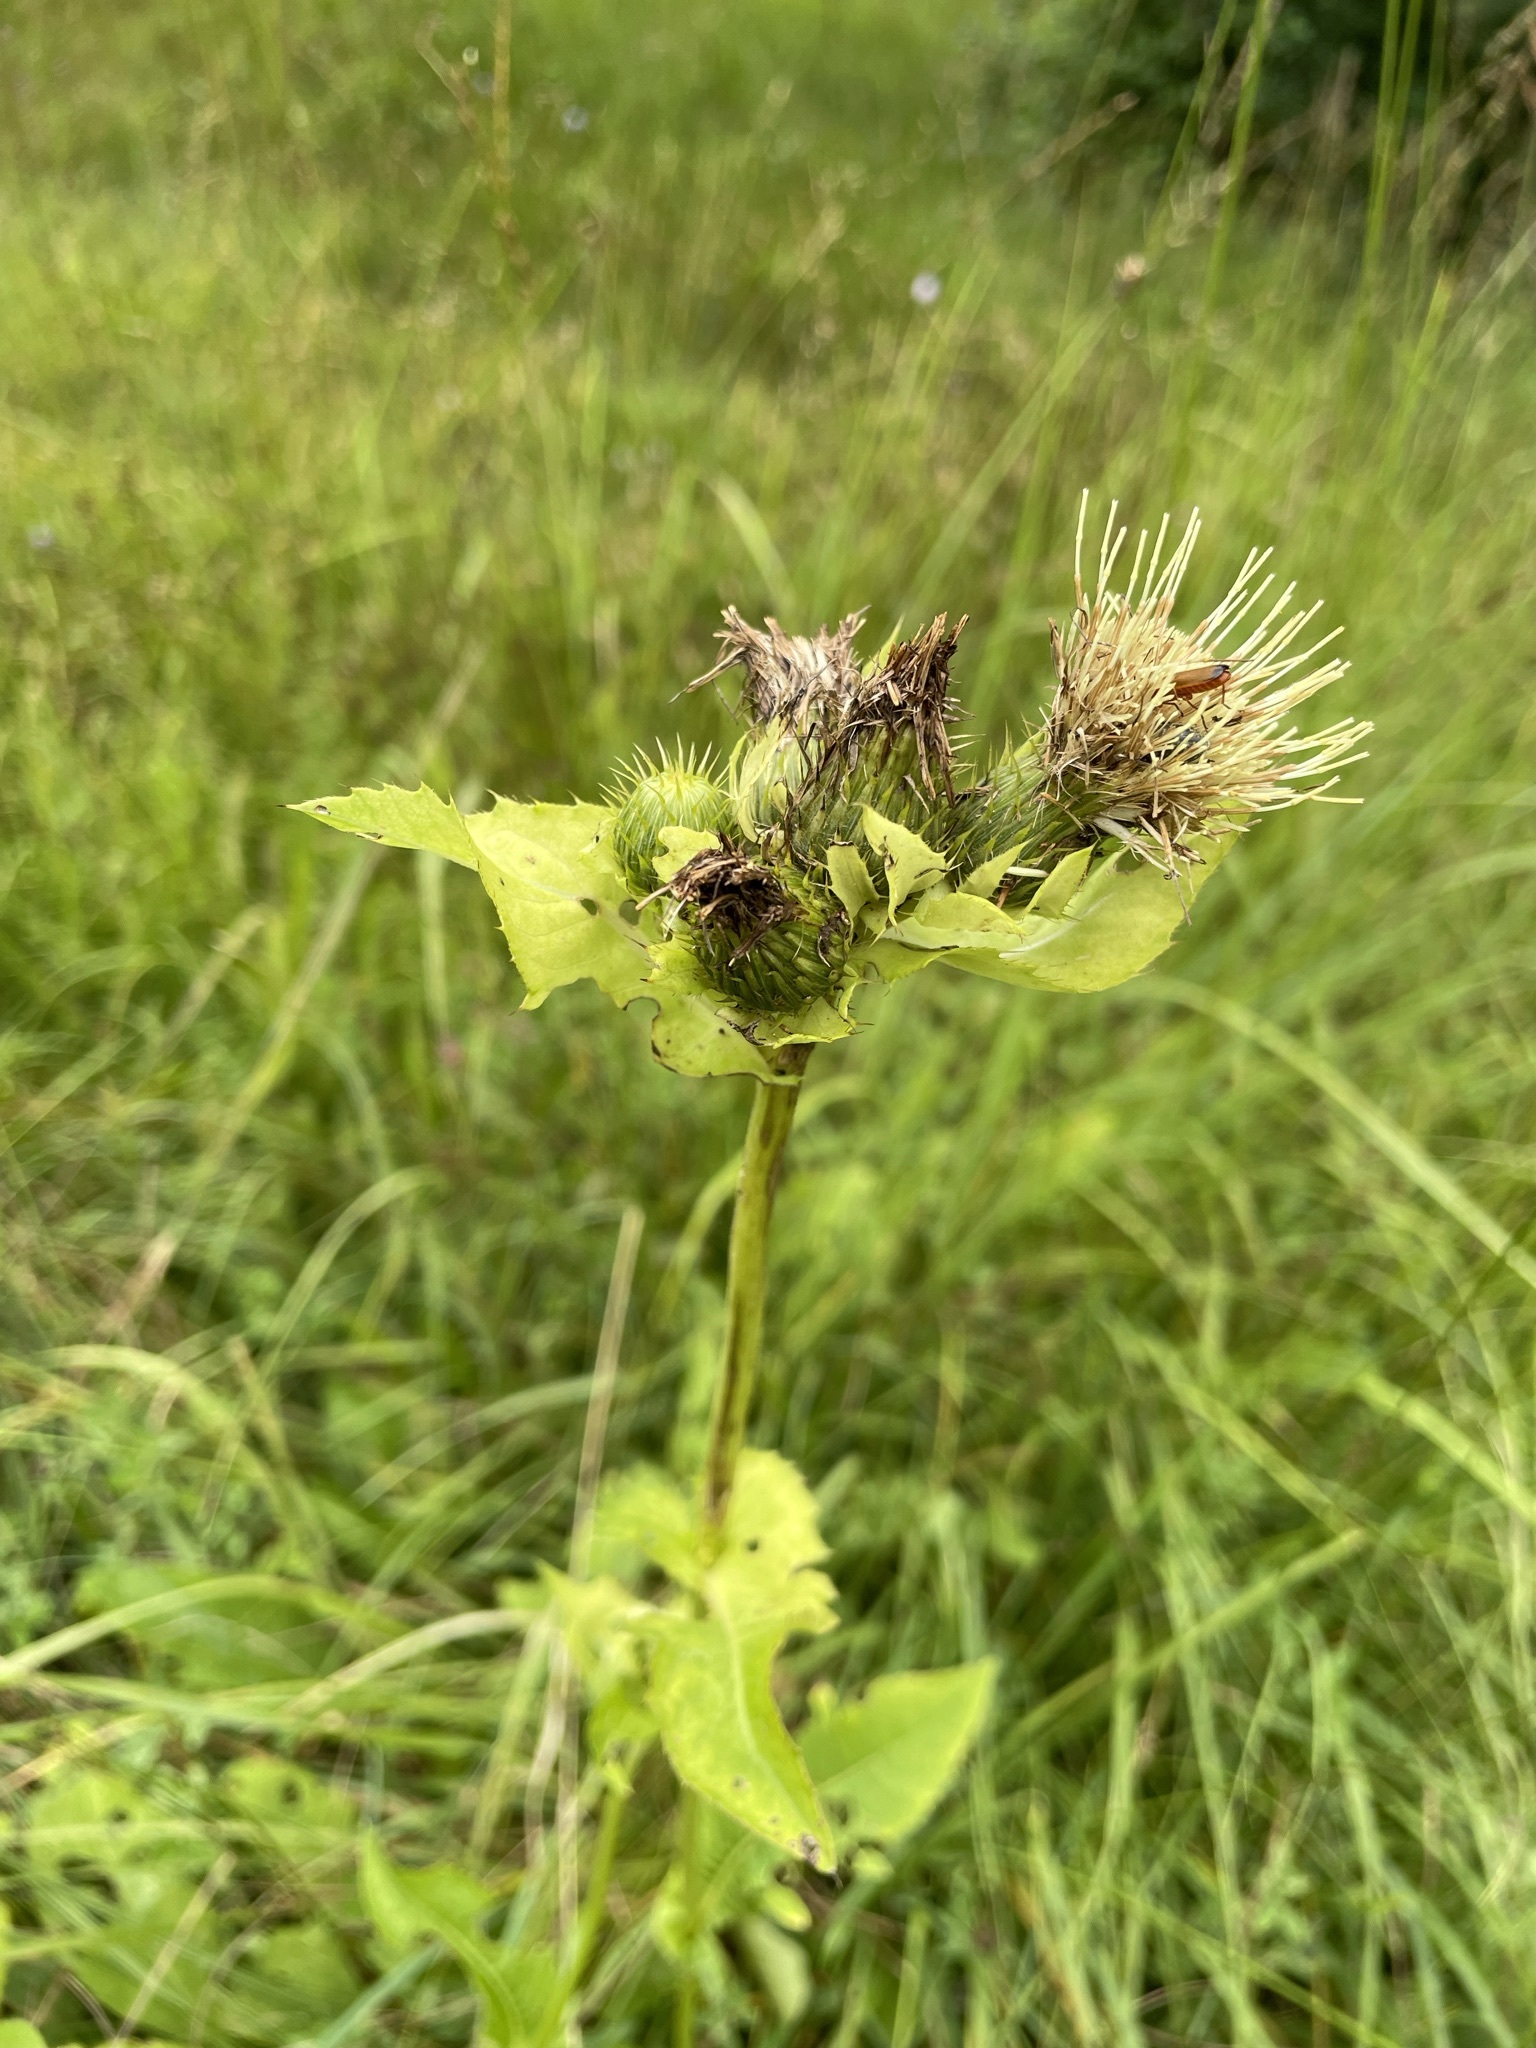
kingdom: Plantae
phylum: Tracheophyta
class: Magnoliopsida
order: Asterales
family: Asteraceae
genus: Cirsium
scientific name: Cirsium oleraceum
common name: Cabbage thistle
